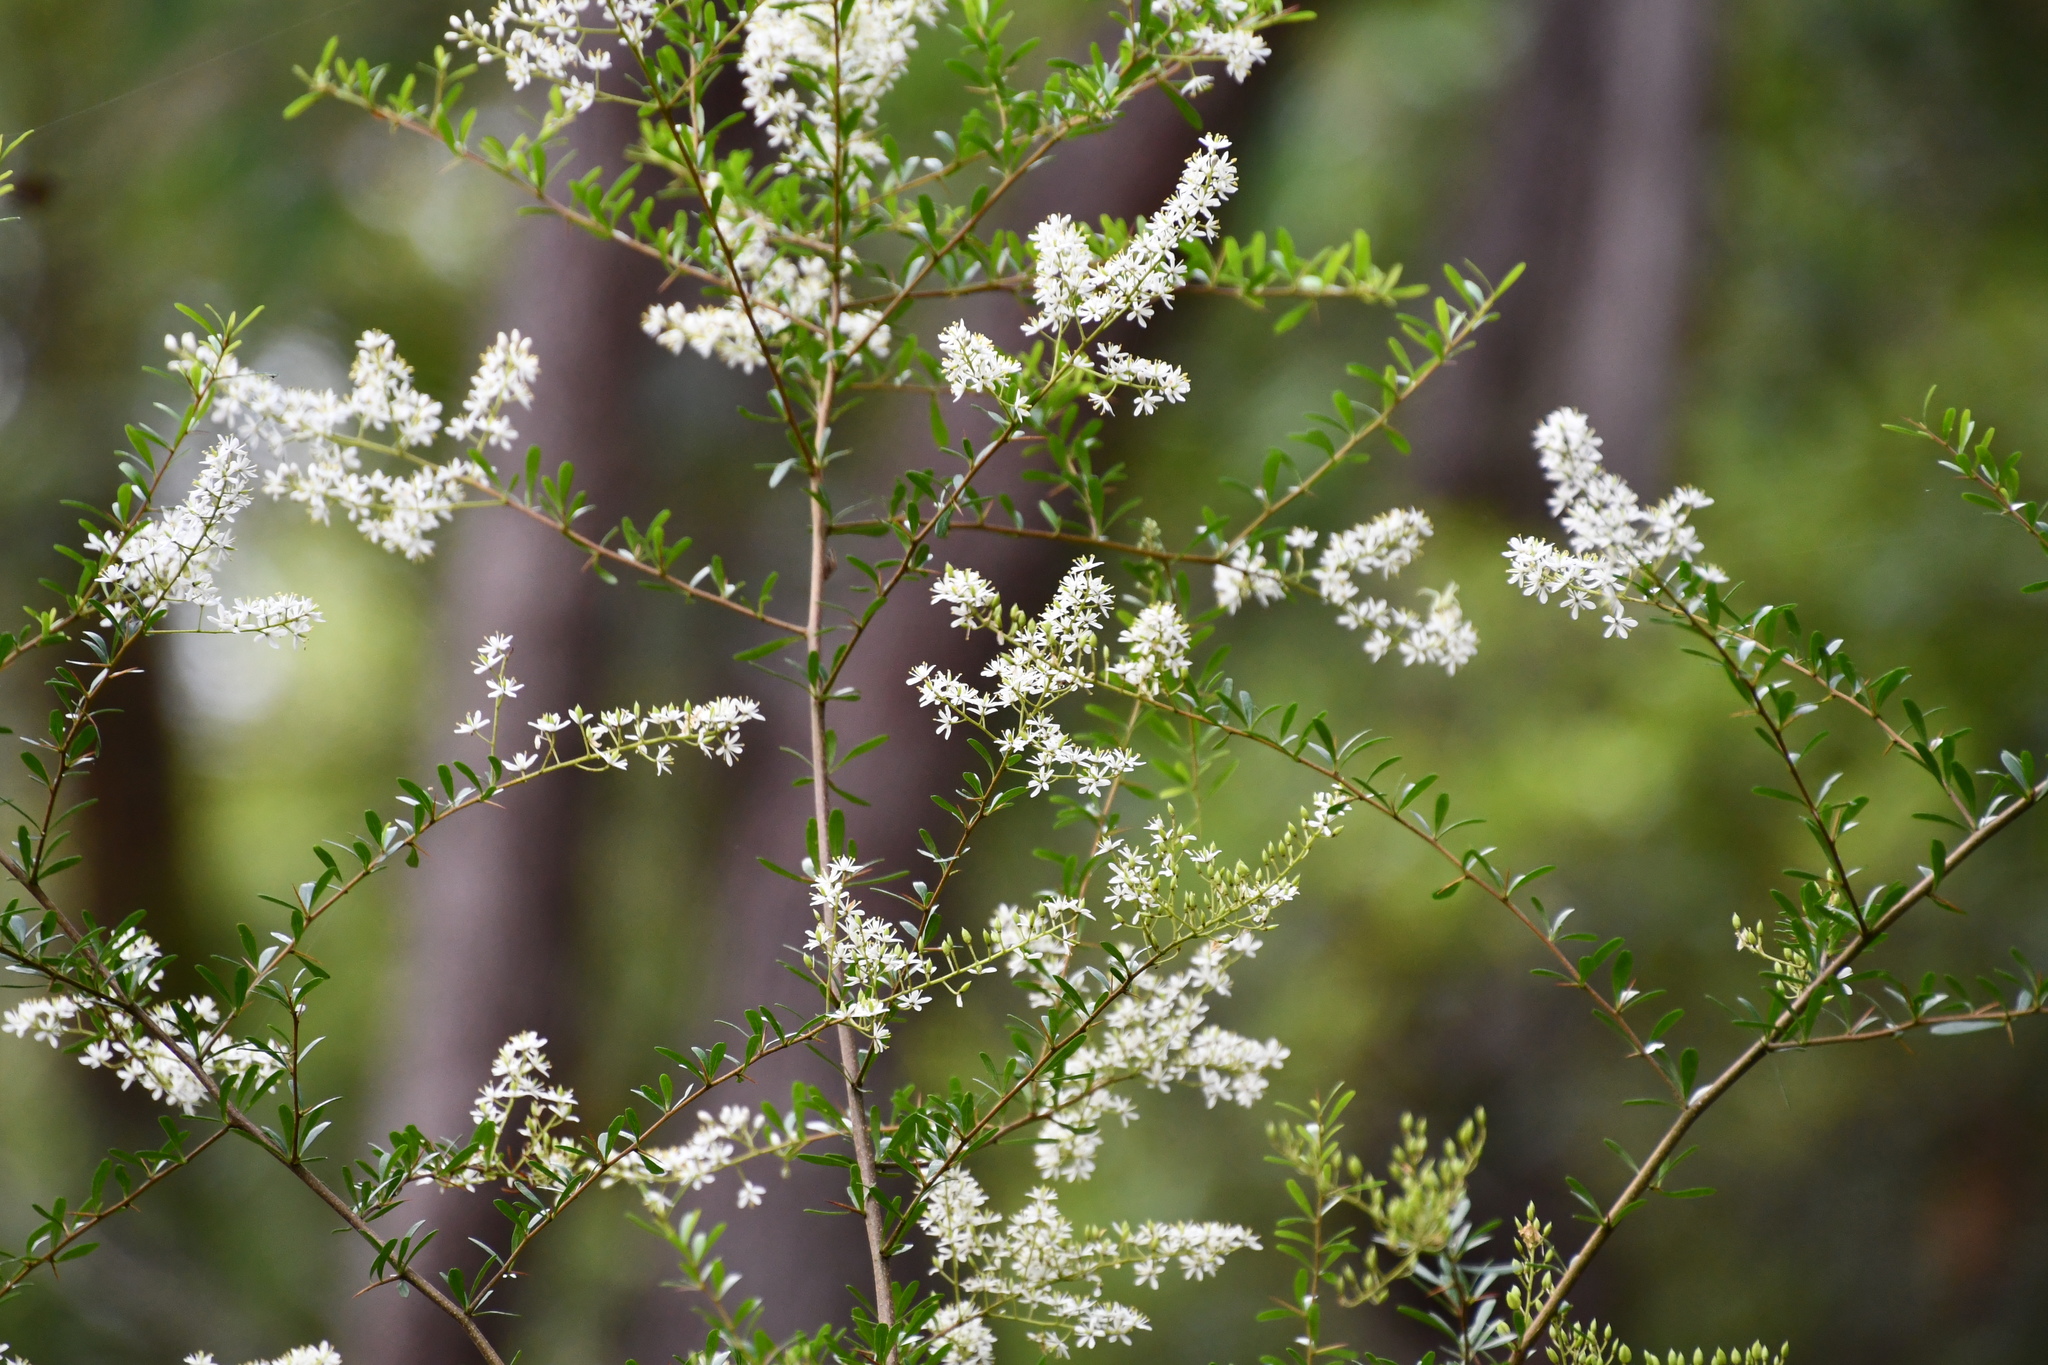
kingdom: Plantae
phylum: Tracheophyta
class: Magnoliopsida
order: Apiales
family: Pittosporaceae
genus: Bursaria
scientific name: Bursaria spinosa
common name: Australian blackthorn
